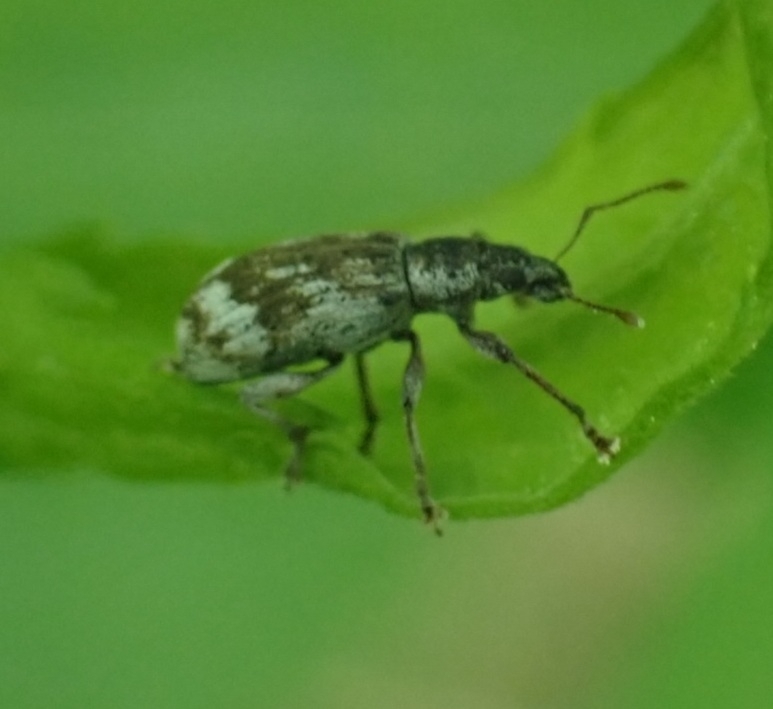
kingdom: Animalia
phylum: Arthropoda
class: Insecta
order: Coleoptera
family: Curculionidae
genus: Polydrusus
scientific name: Polydrusus tereticollis
